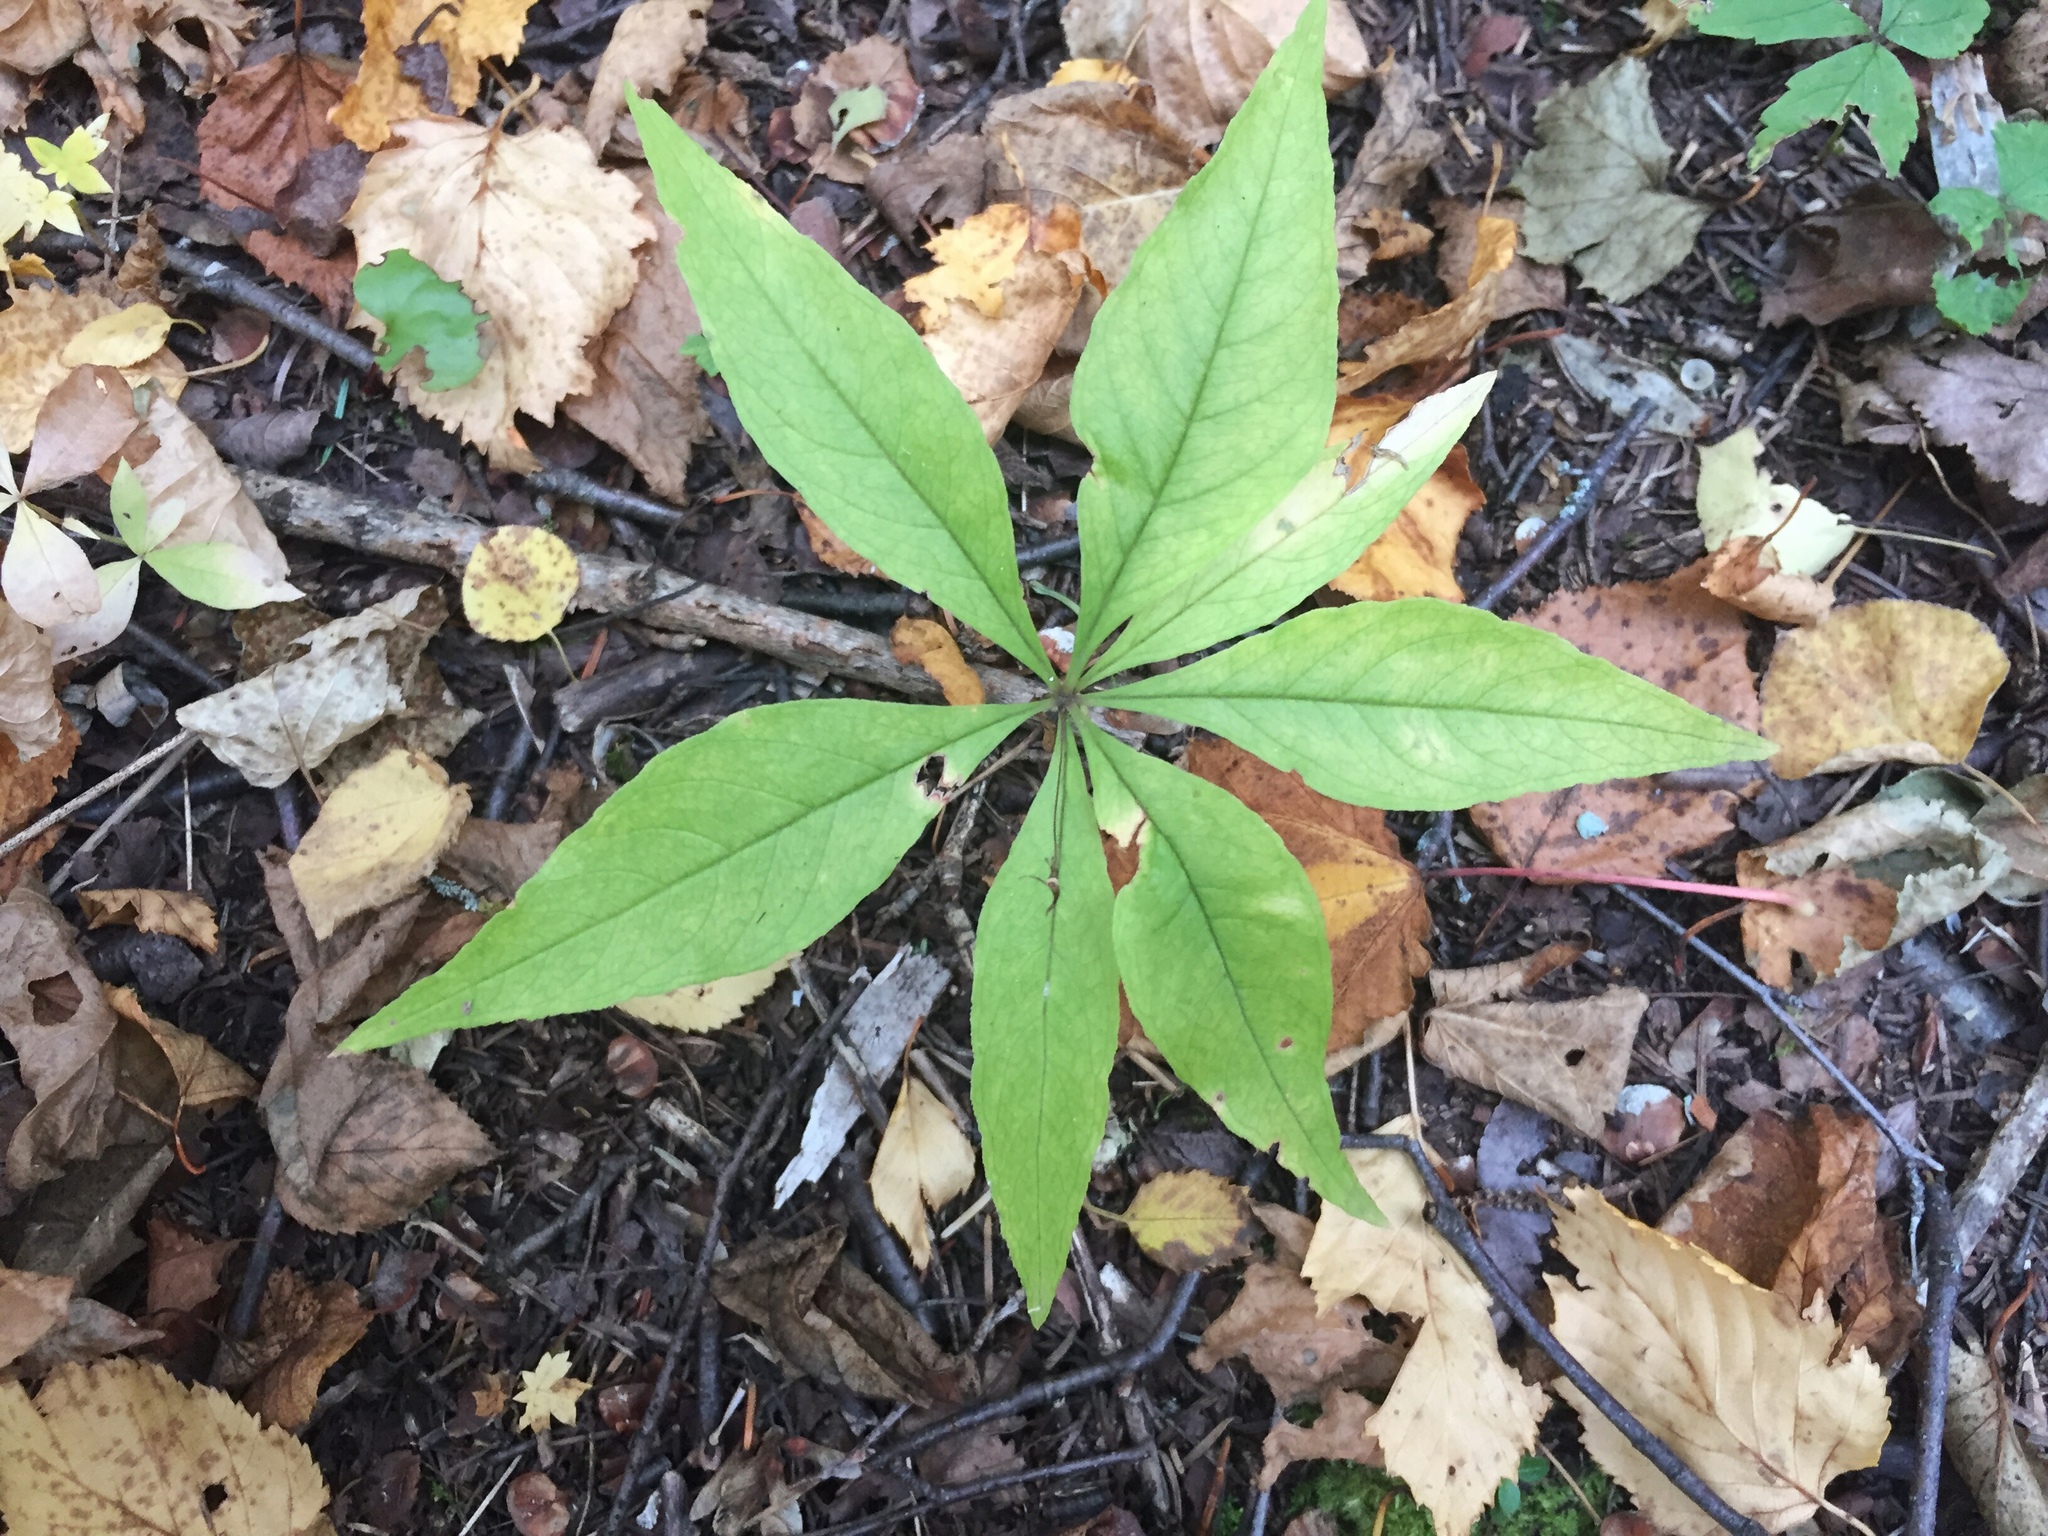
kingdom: Plantae
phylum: Tracheophyta
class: Magnoliopsida
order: Ericales
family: Primulaceae
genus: Lysimachia
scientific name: Lysimachia borealis
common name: American starflower
